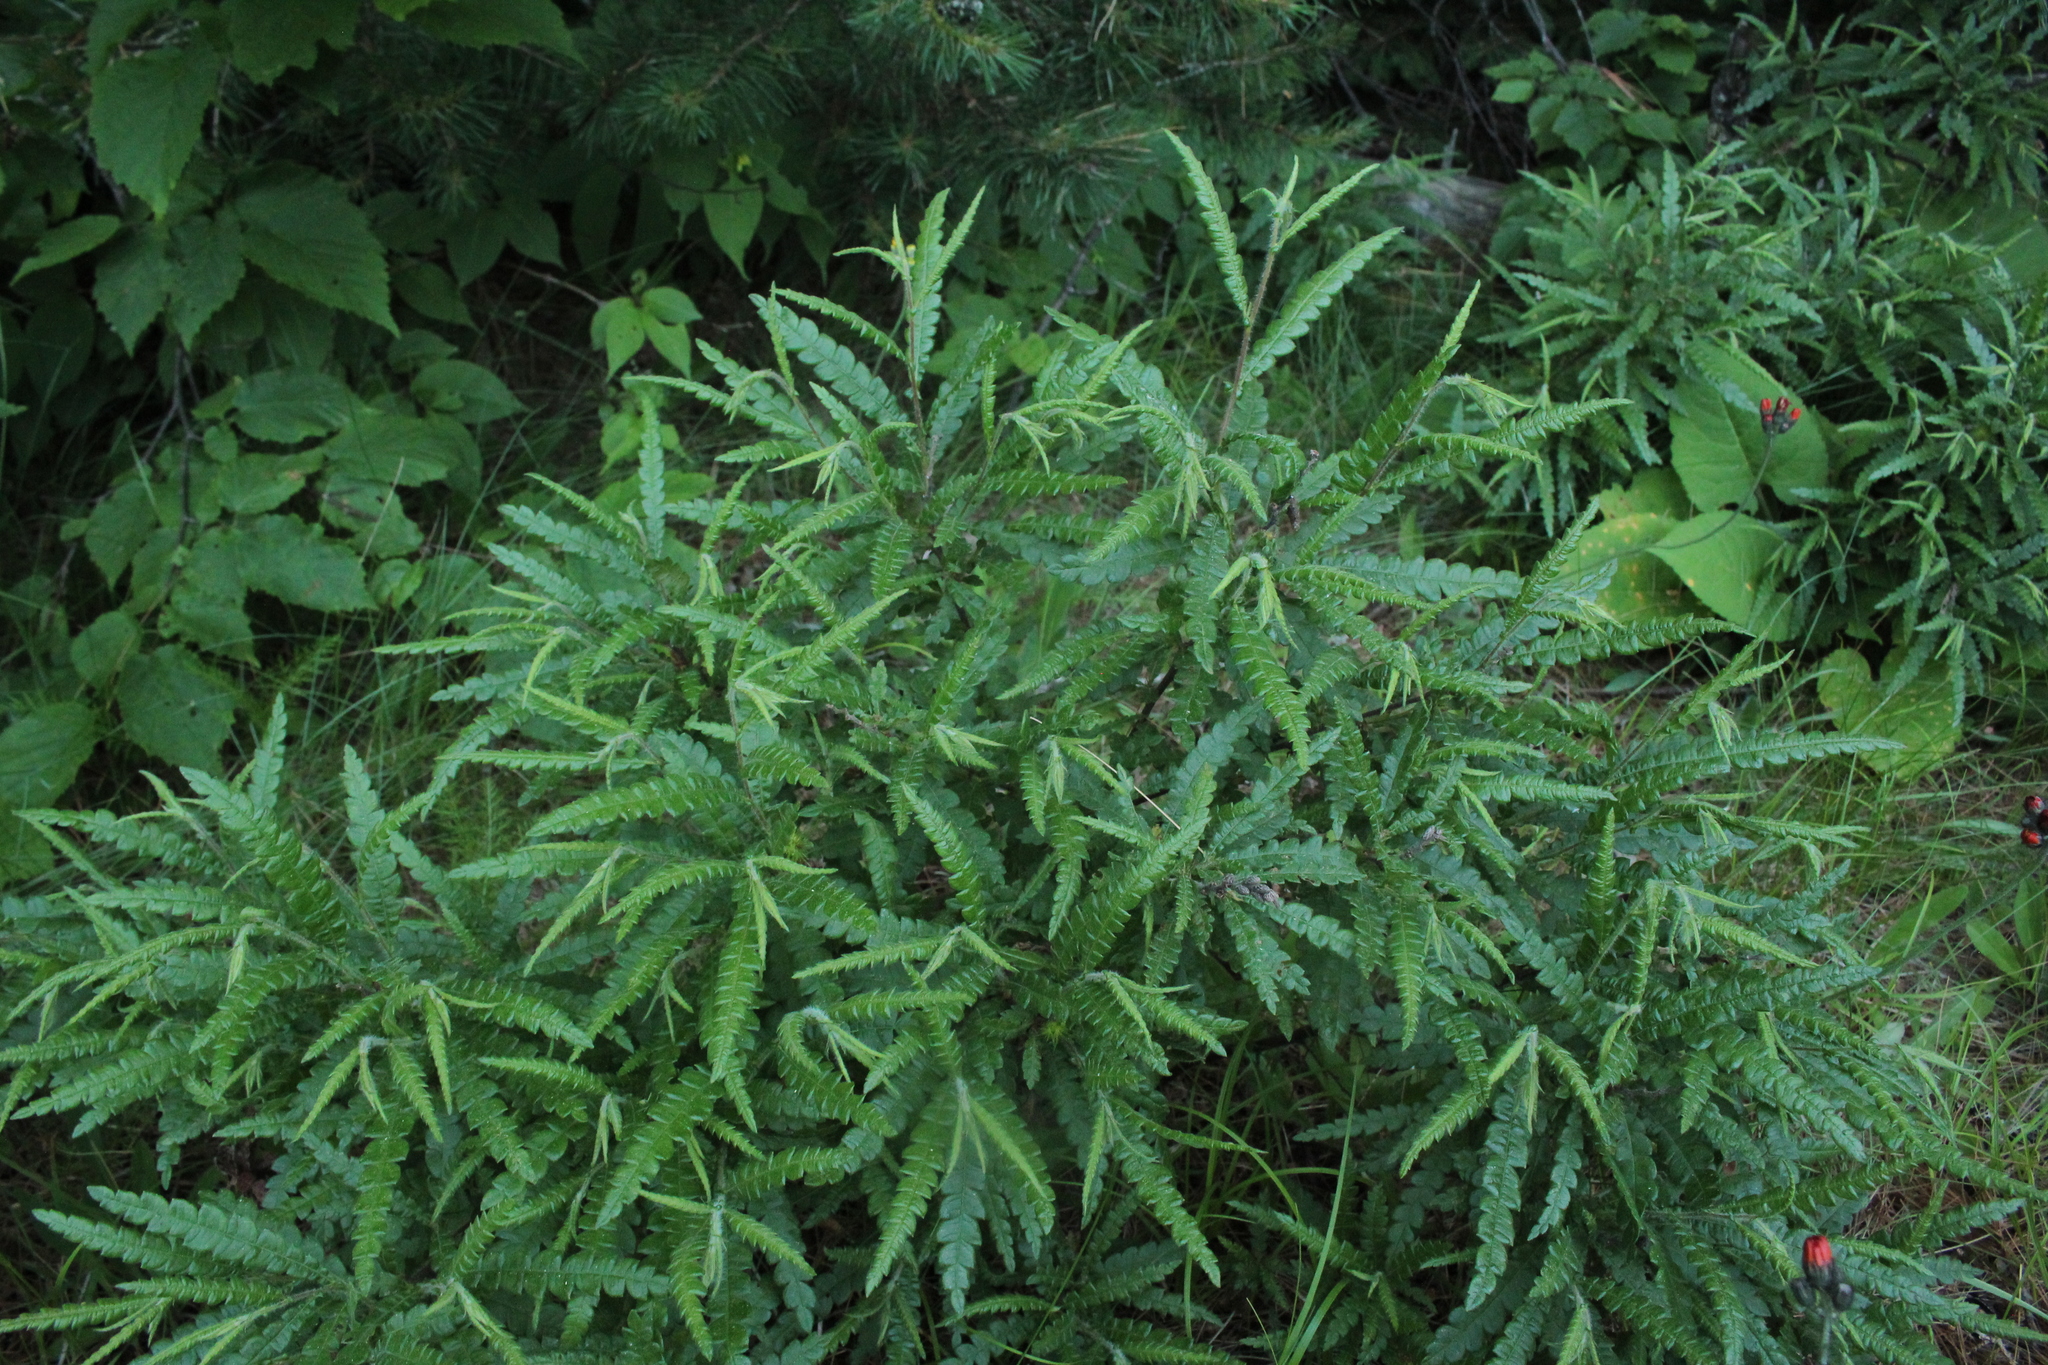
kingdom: Plantae
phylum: Tracheophyta
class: Magnoliopsida
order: Fagales
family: Myricaceae
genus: Comptonia
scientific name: Comptonia peregrina
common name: Sweet-fern
